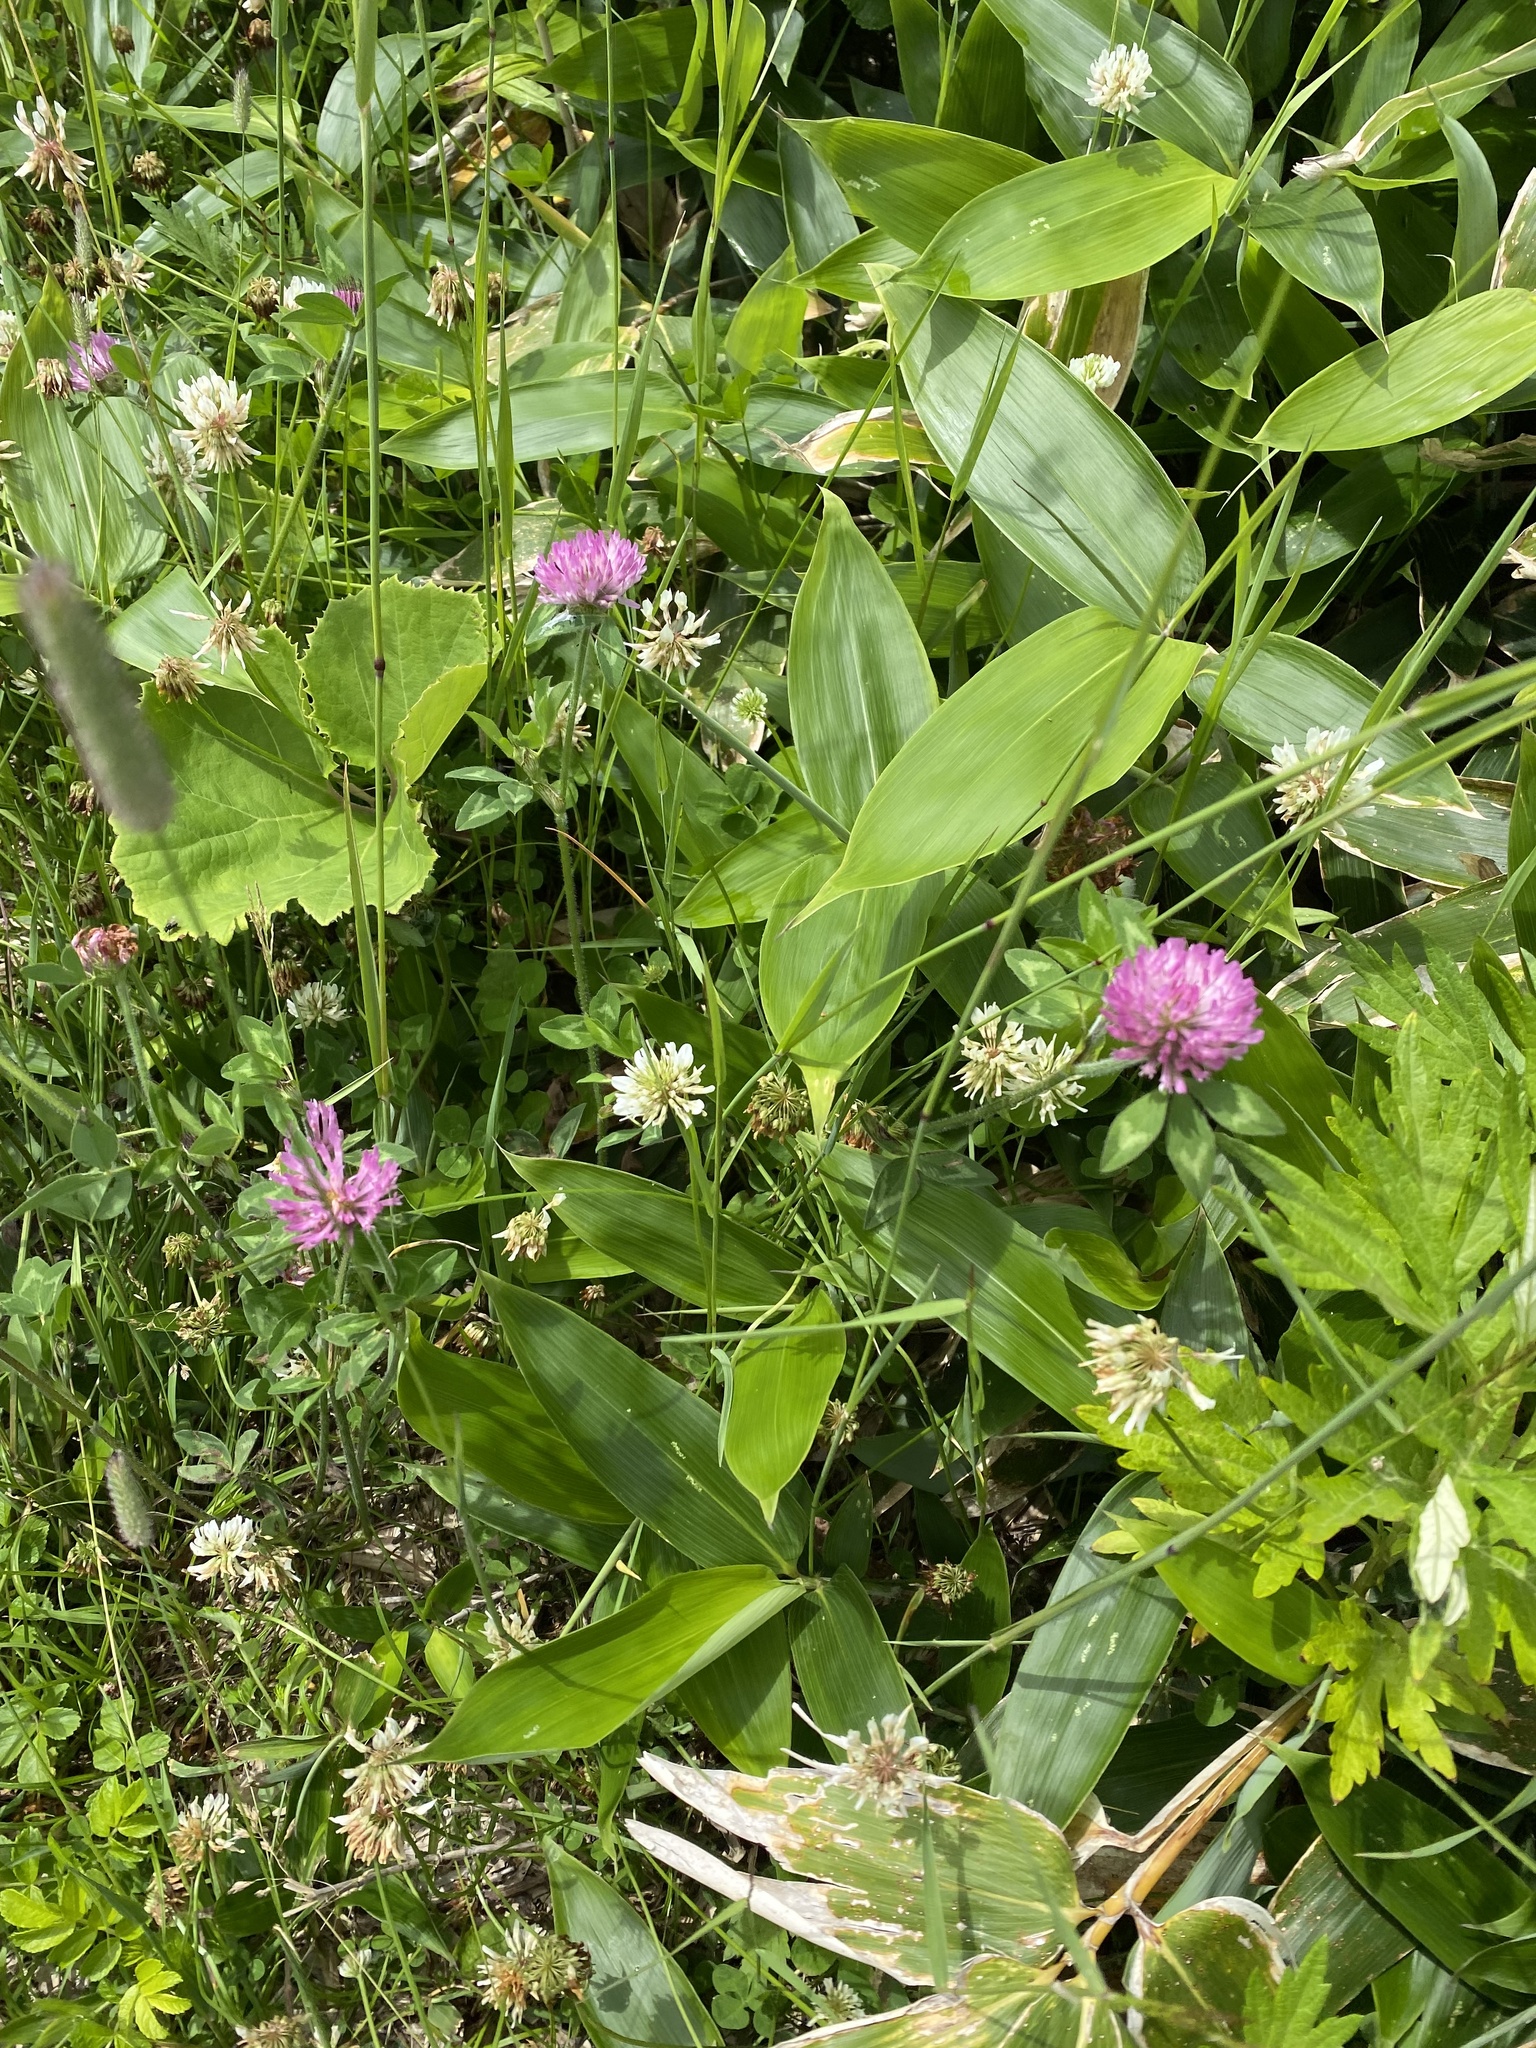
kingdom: Plantae
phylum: Tracheophyta
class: Magnoliopsida
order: Fabales
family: Fabaceae
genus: Trifolium
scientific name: Trifolium pratense
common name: Red clover
